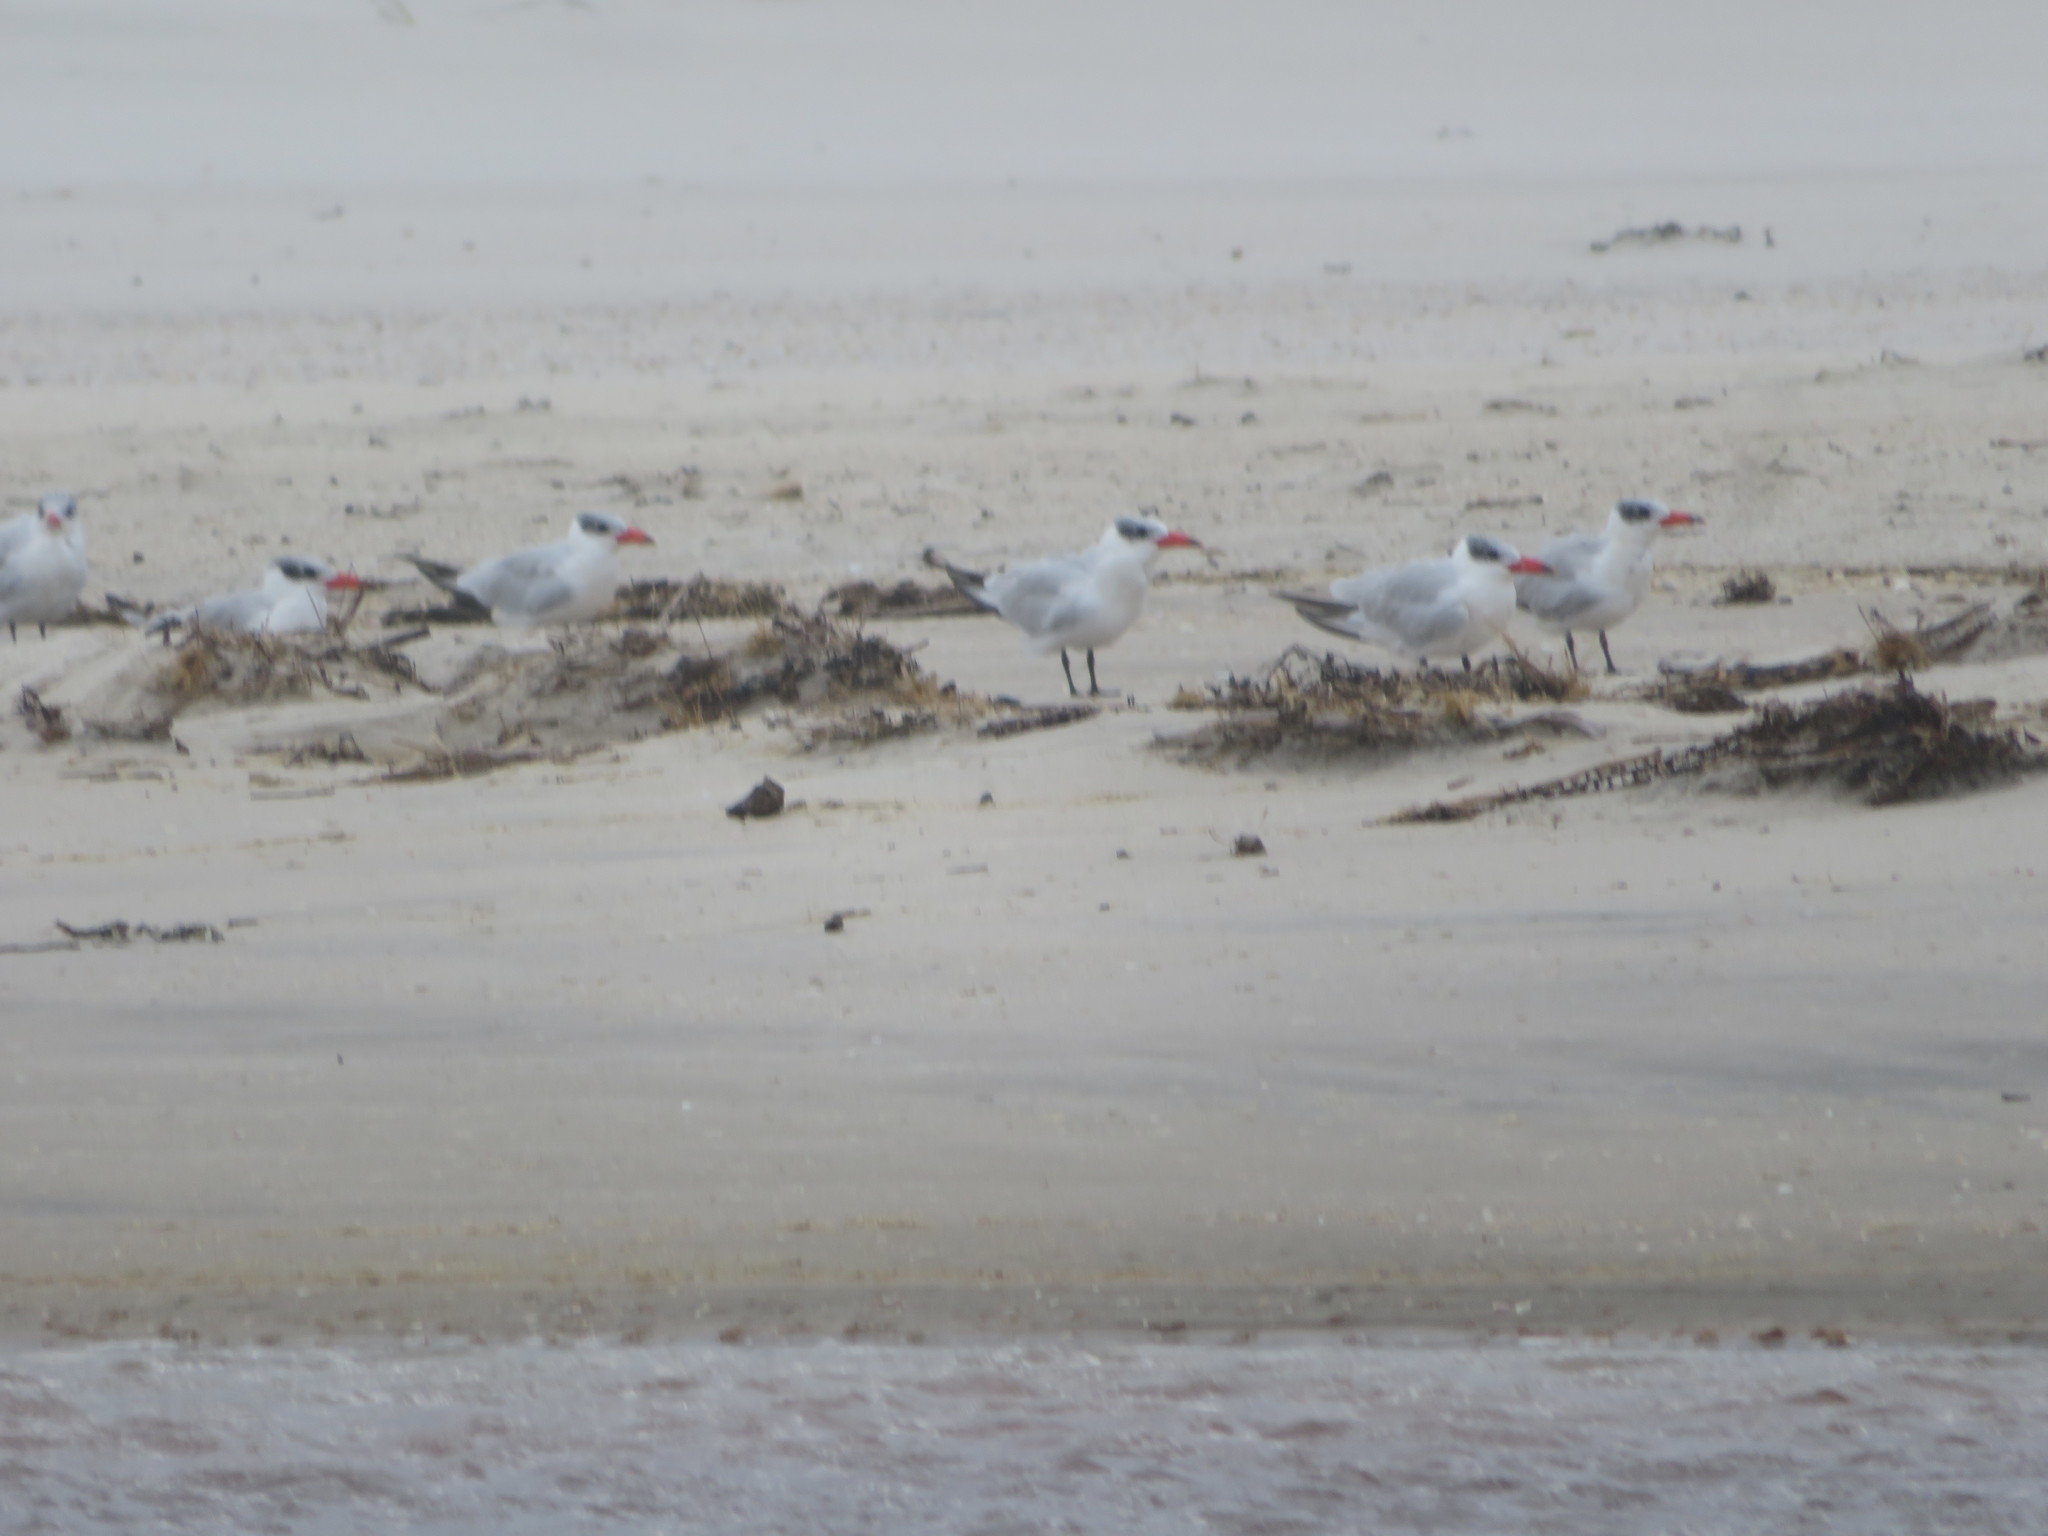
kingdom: Animalia
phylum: Chordata
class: Aves
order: Charadriiformes
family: Laridae
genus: Hydroprogne
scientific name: Hydroprogne caspia
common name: Caspian tern
